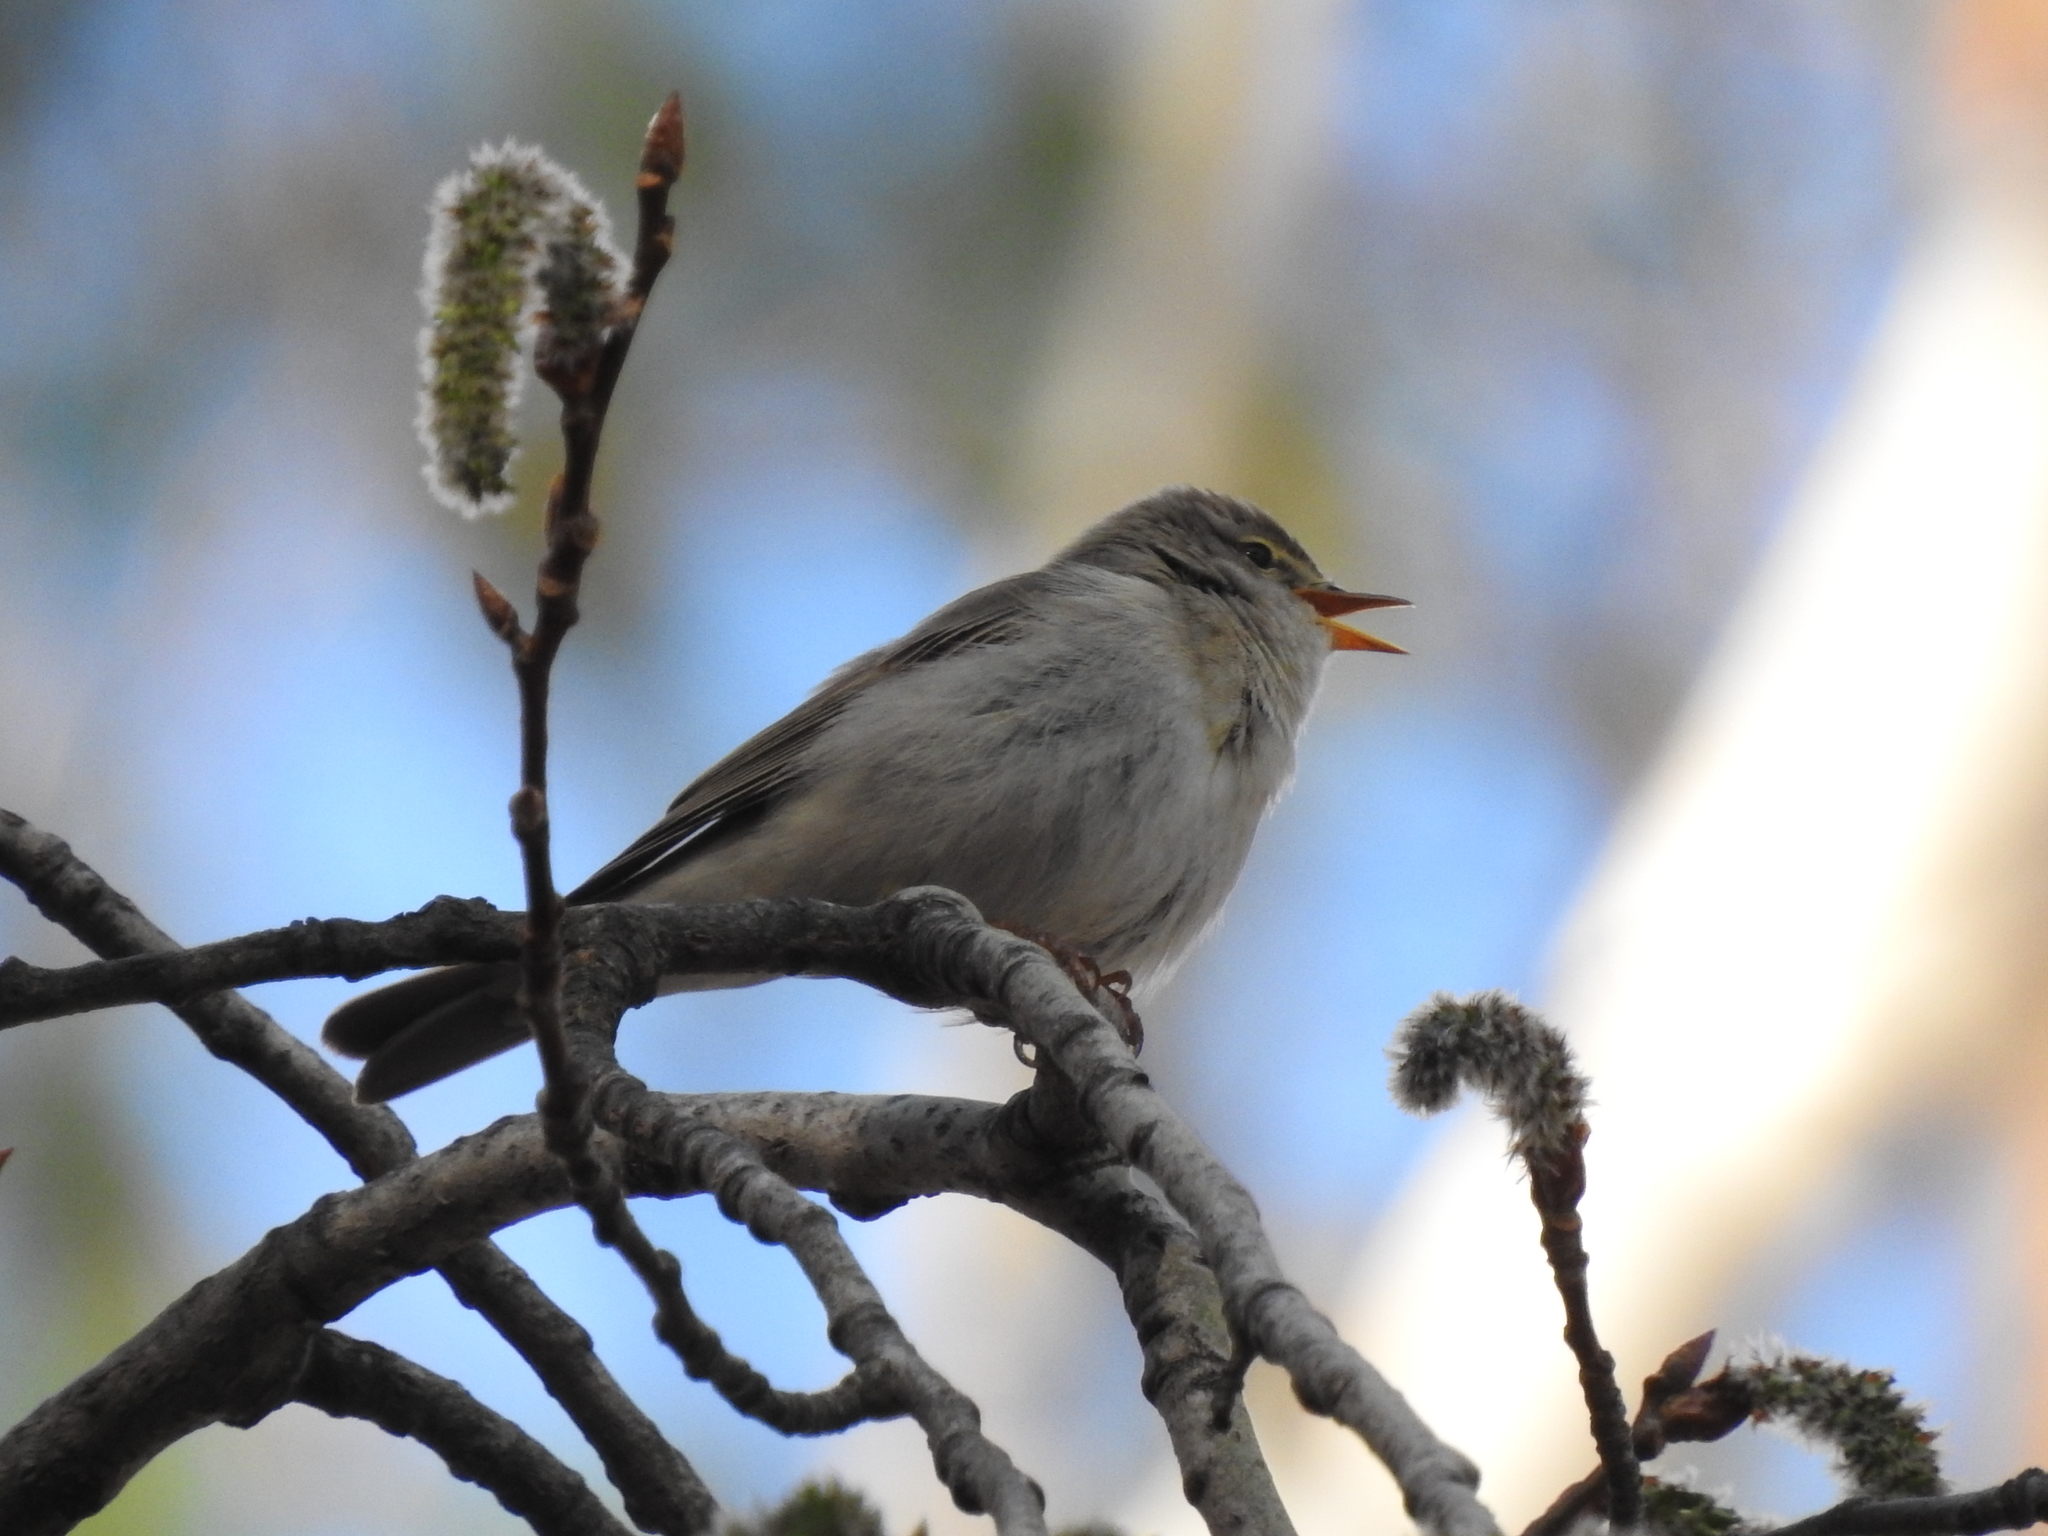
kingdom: Animalia
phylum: Chordata
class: Aves
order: Passeriformes
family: Phylloscopidae
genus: Phylloscopus
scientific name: Phylloscopus collybita
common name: Common chiffchaff
